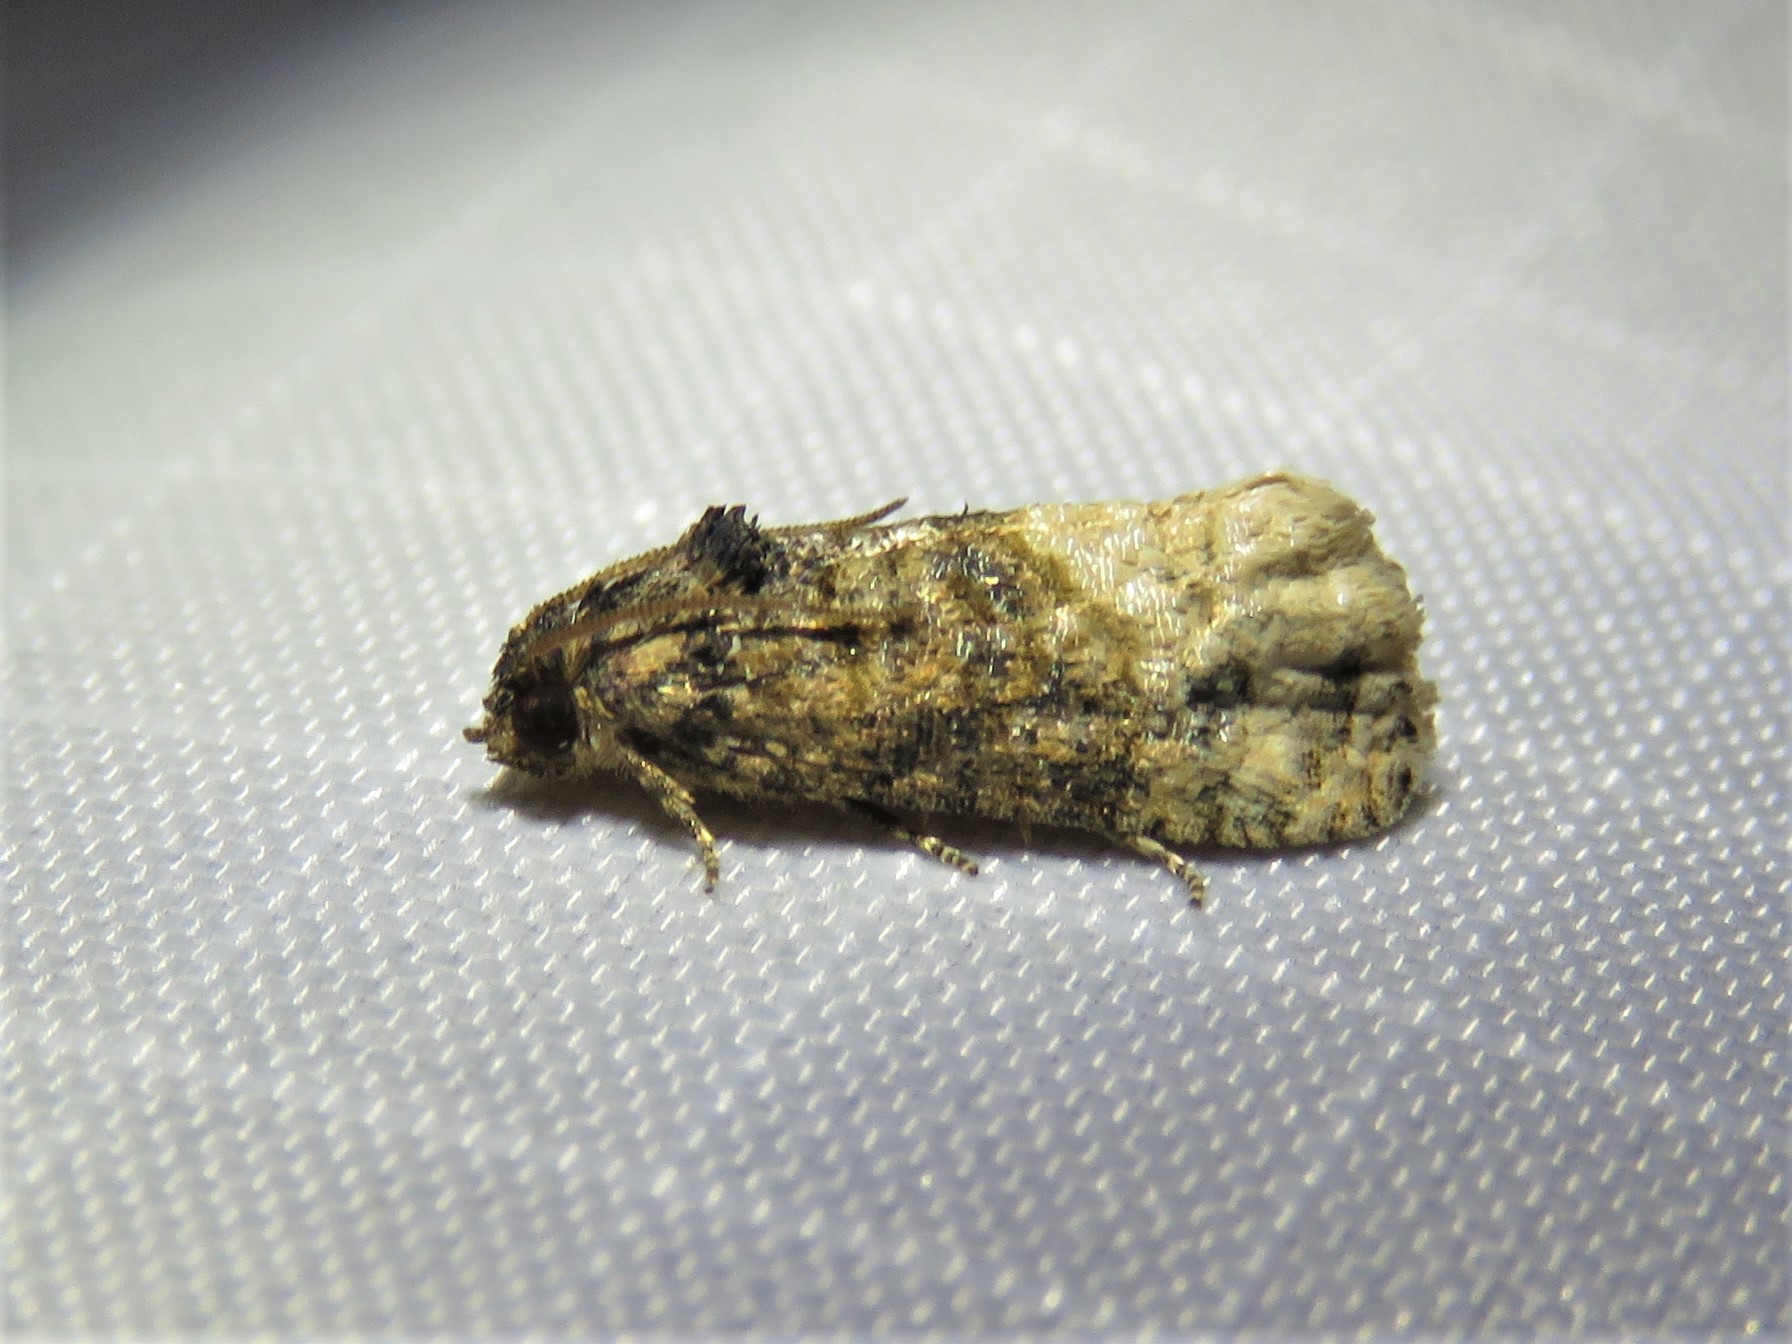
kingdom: Animalia
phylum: Arthropoda
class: Insecta
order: Lepidoptera
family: Tortricidae
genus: Ecdytolopha
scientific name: Ecdytolopha mana
